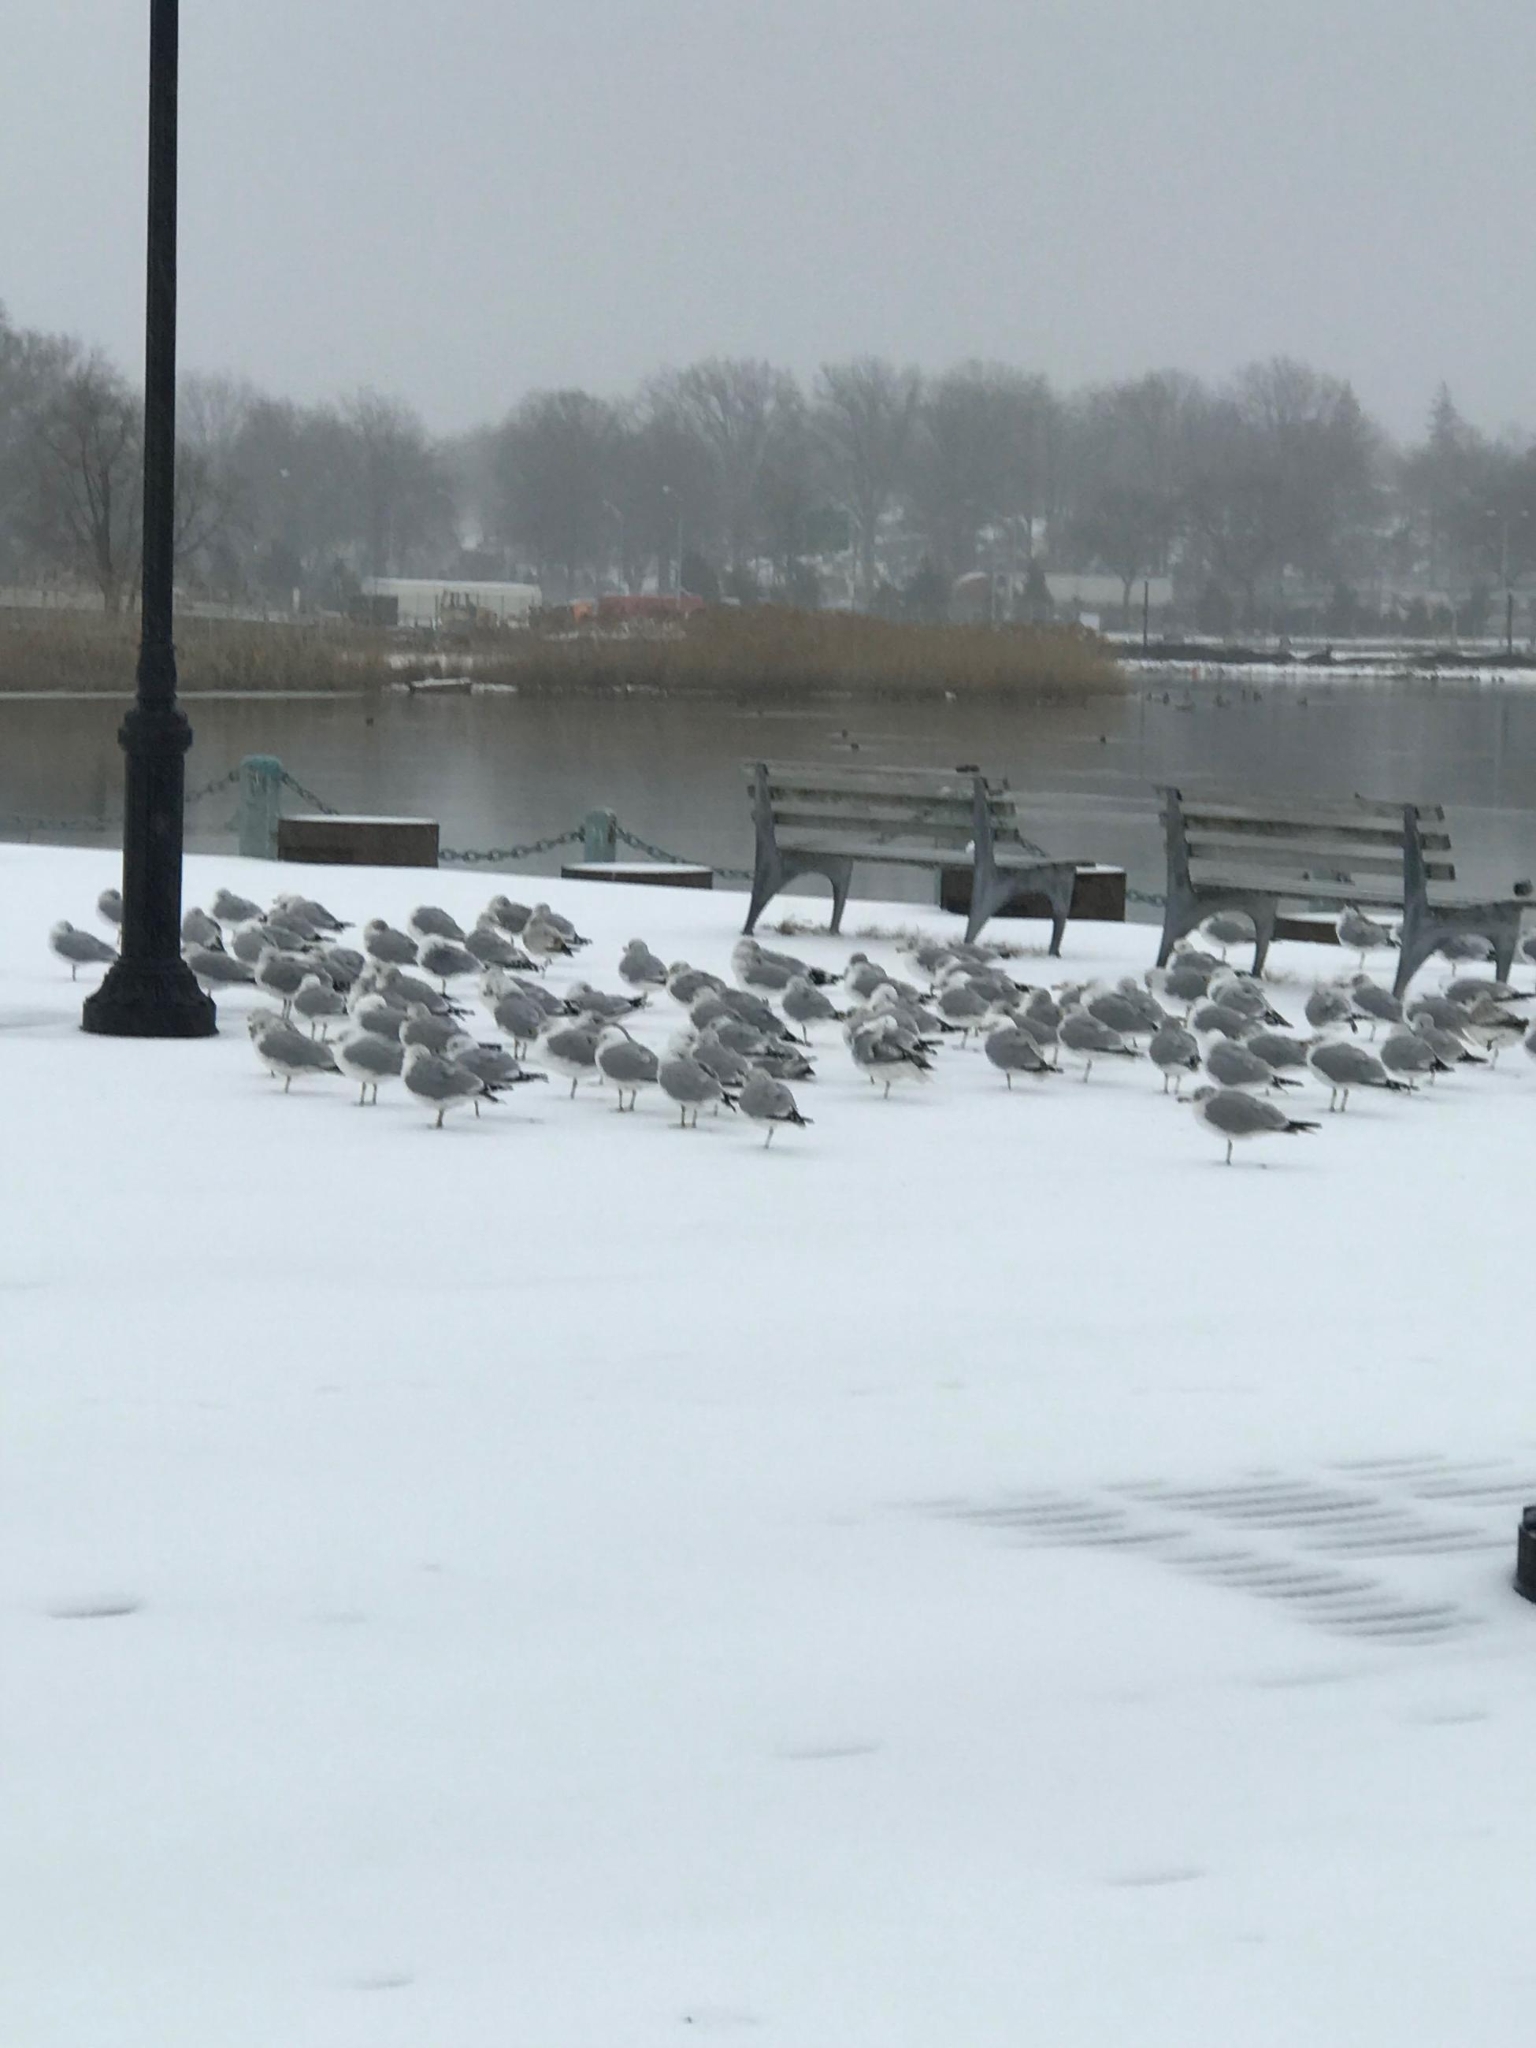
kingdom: Animalia
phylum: Chordata
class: Aves
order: Charadriiformes
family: Laridae
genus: Larus
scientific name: Larus delawarensis
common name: Ring-billed gull
